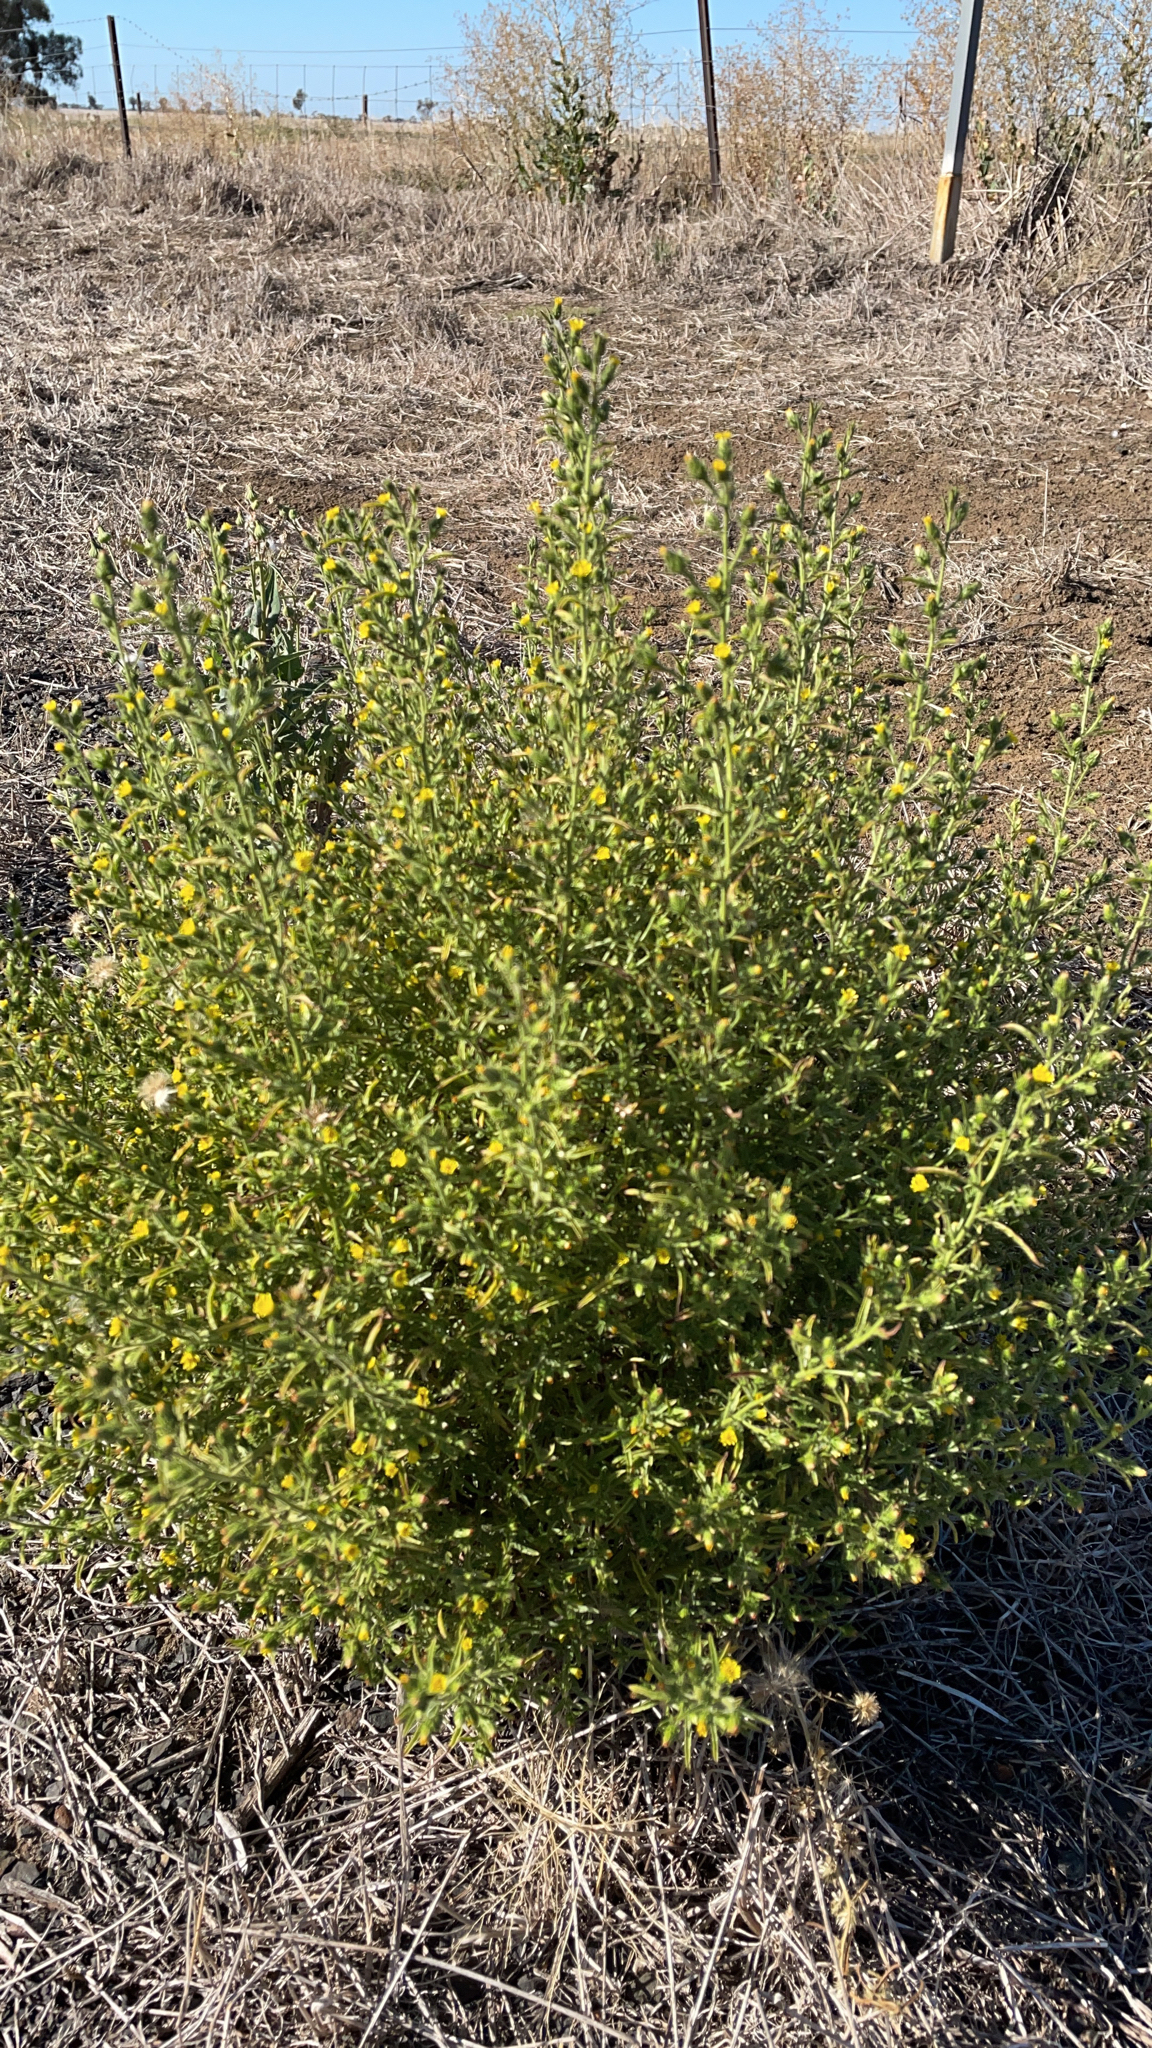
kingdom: Plantae
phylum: Tracheophyta
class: Magnoliopsida
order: Asterales
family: Asteraceae
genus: Dittrichia
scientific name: Dittrichia graveolens
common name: Stinking fleabane
